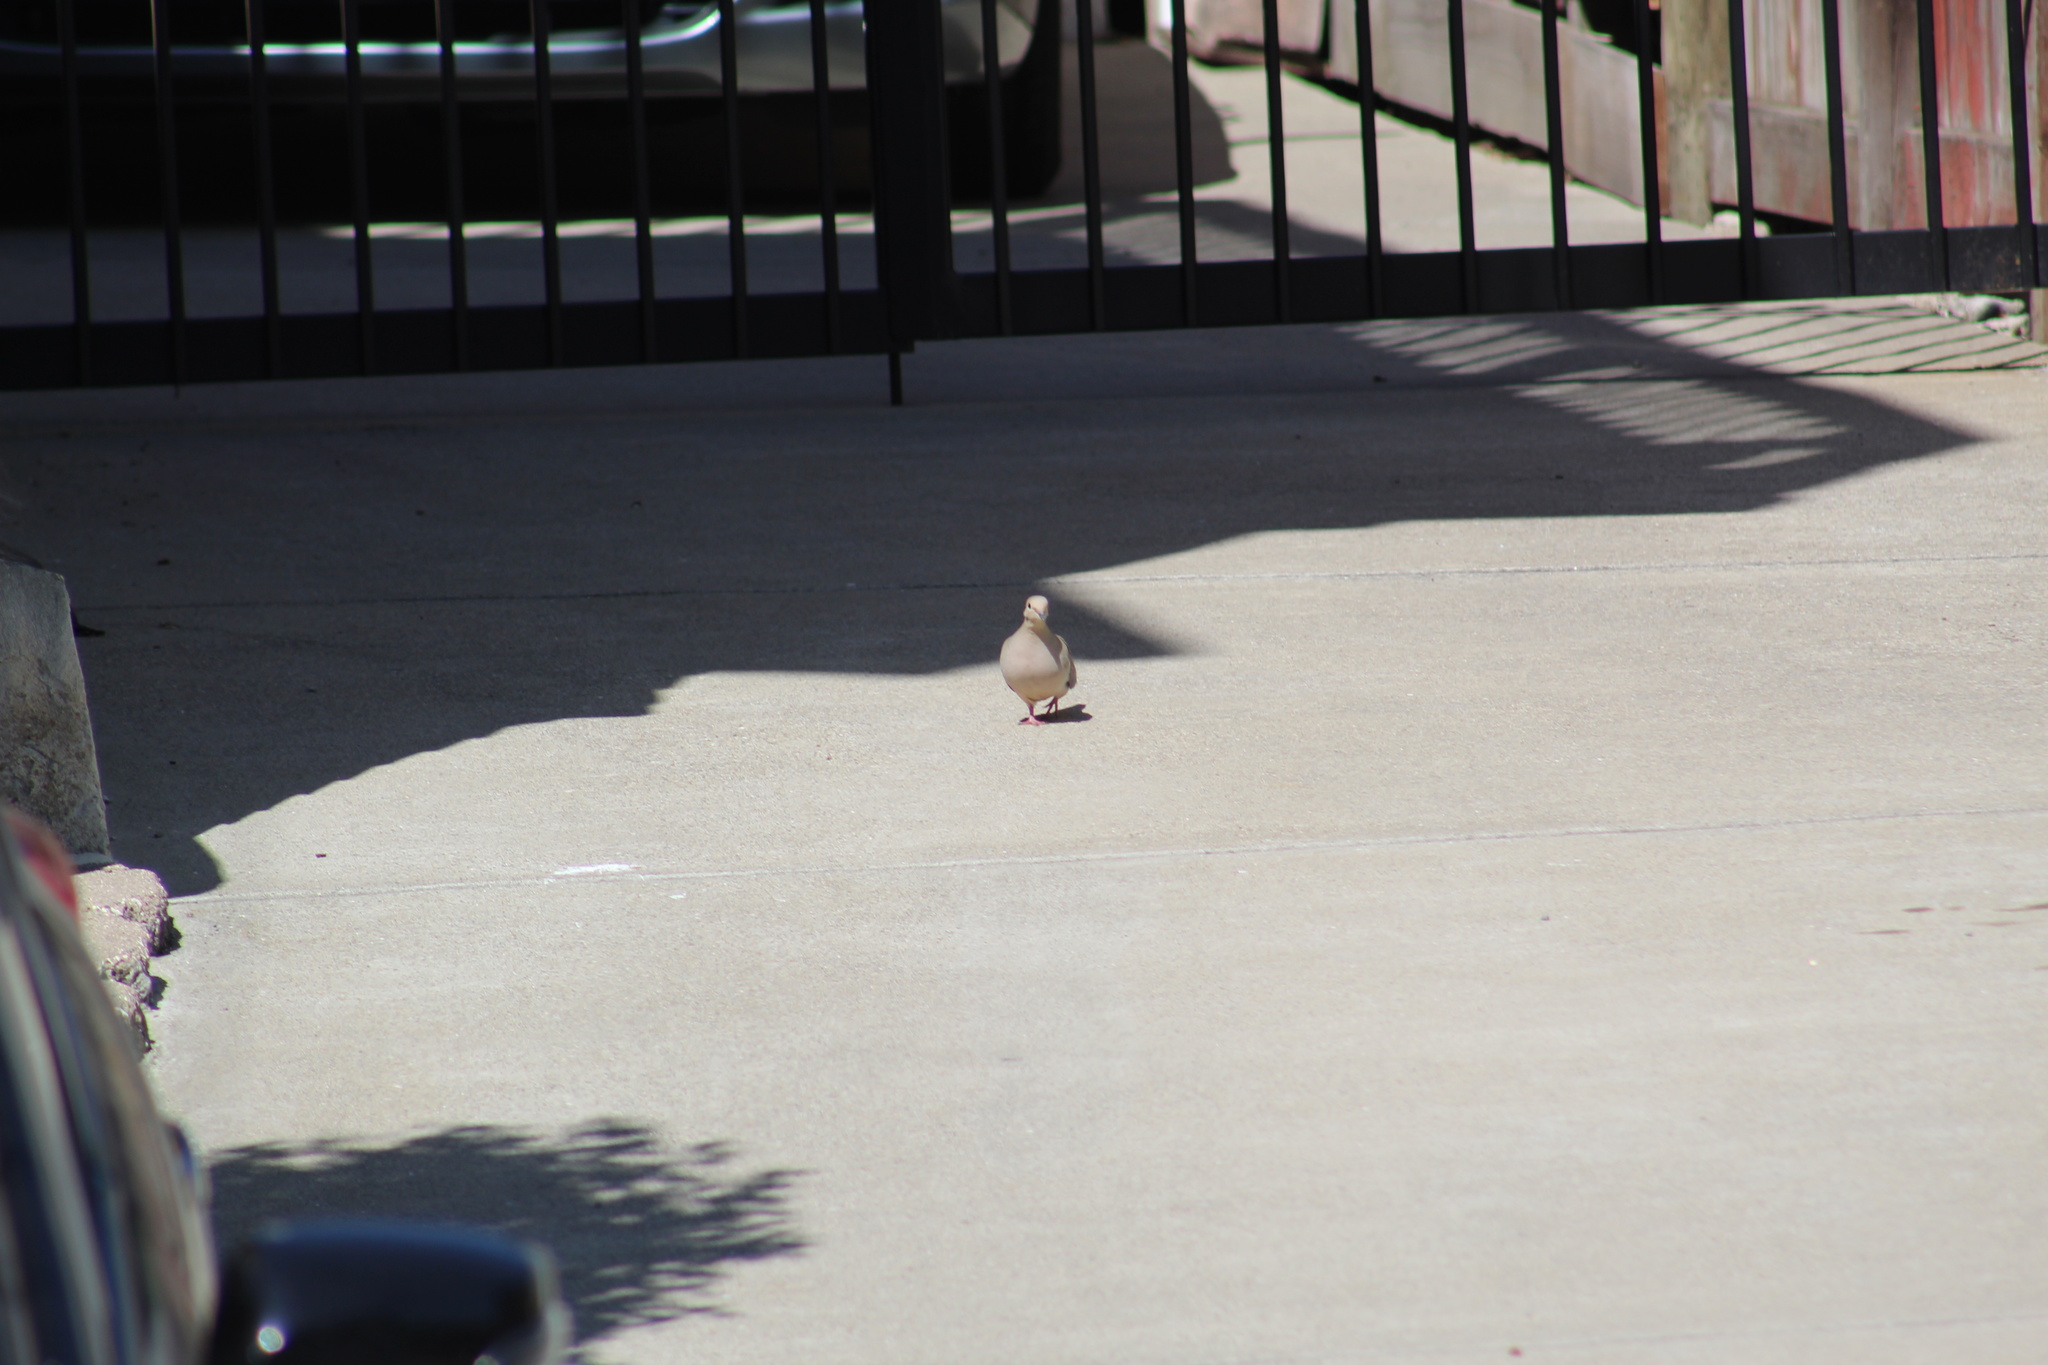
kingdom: Animalia
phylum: Chordata
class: Aves
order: Columbiformes
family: Columbidae
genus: Zenaida
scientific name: Zenaida macroura
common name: Mourning dove
